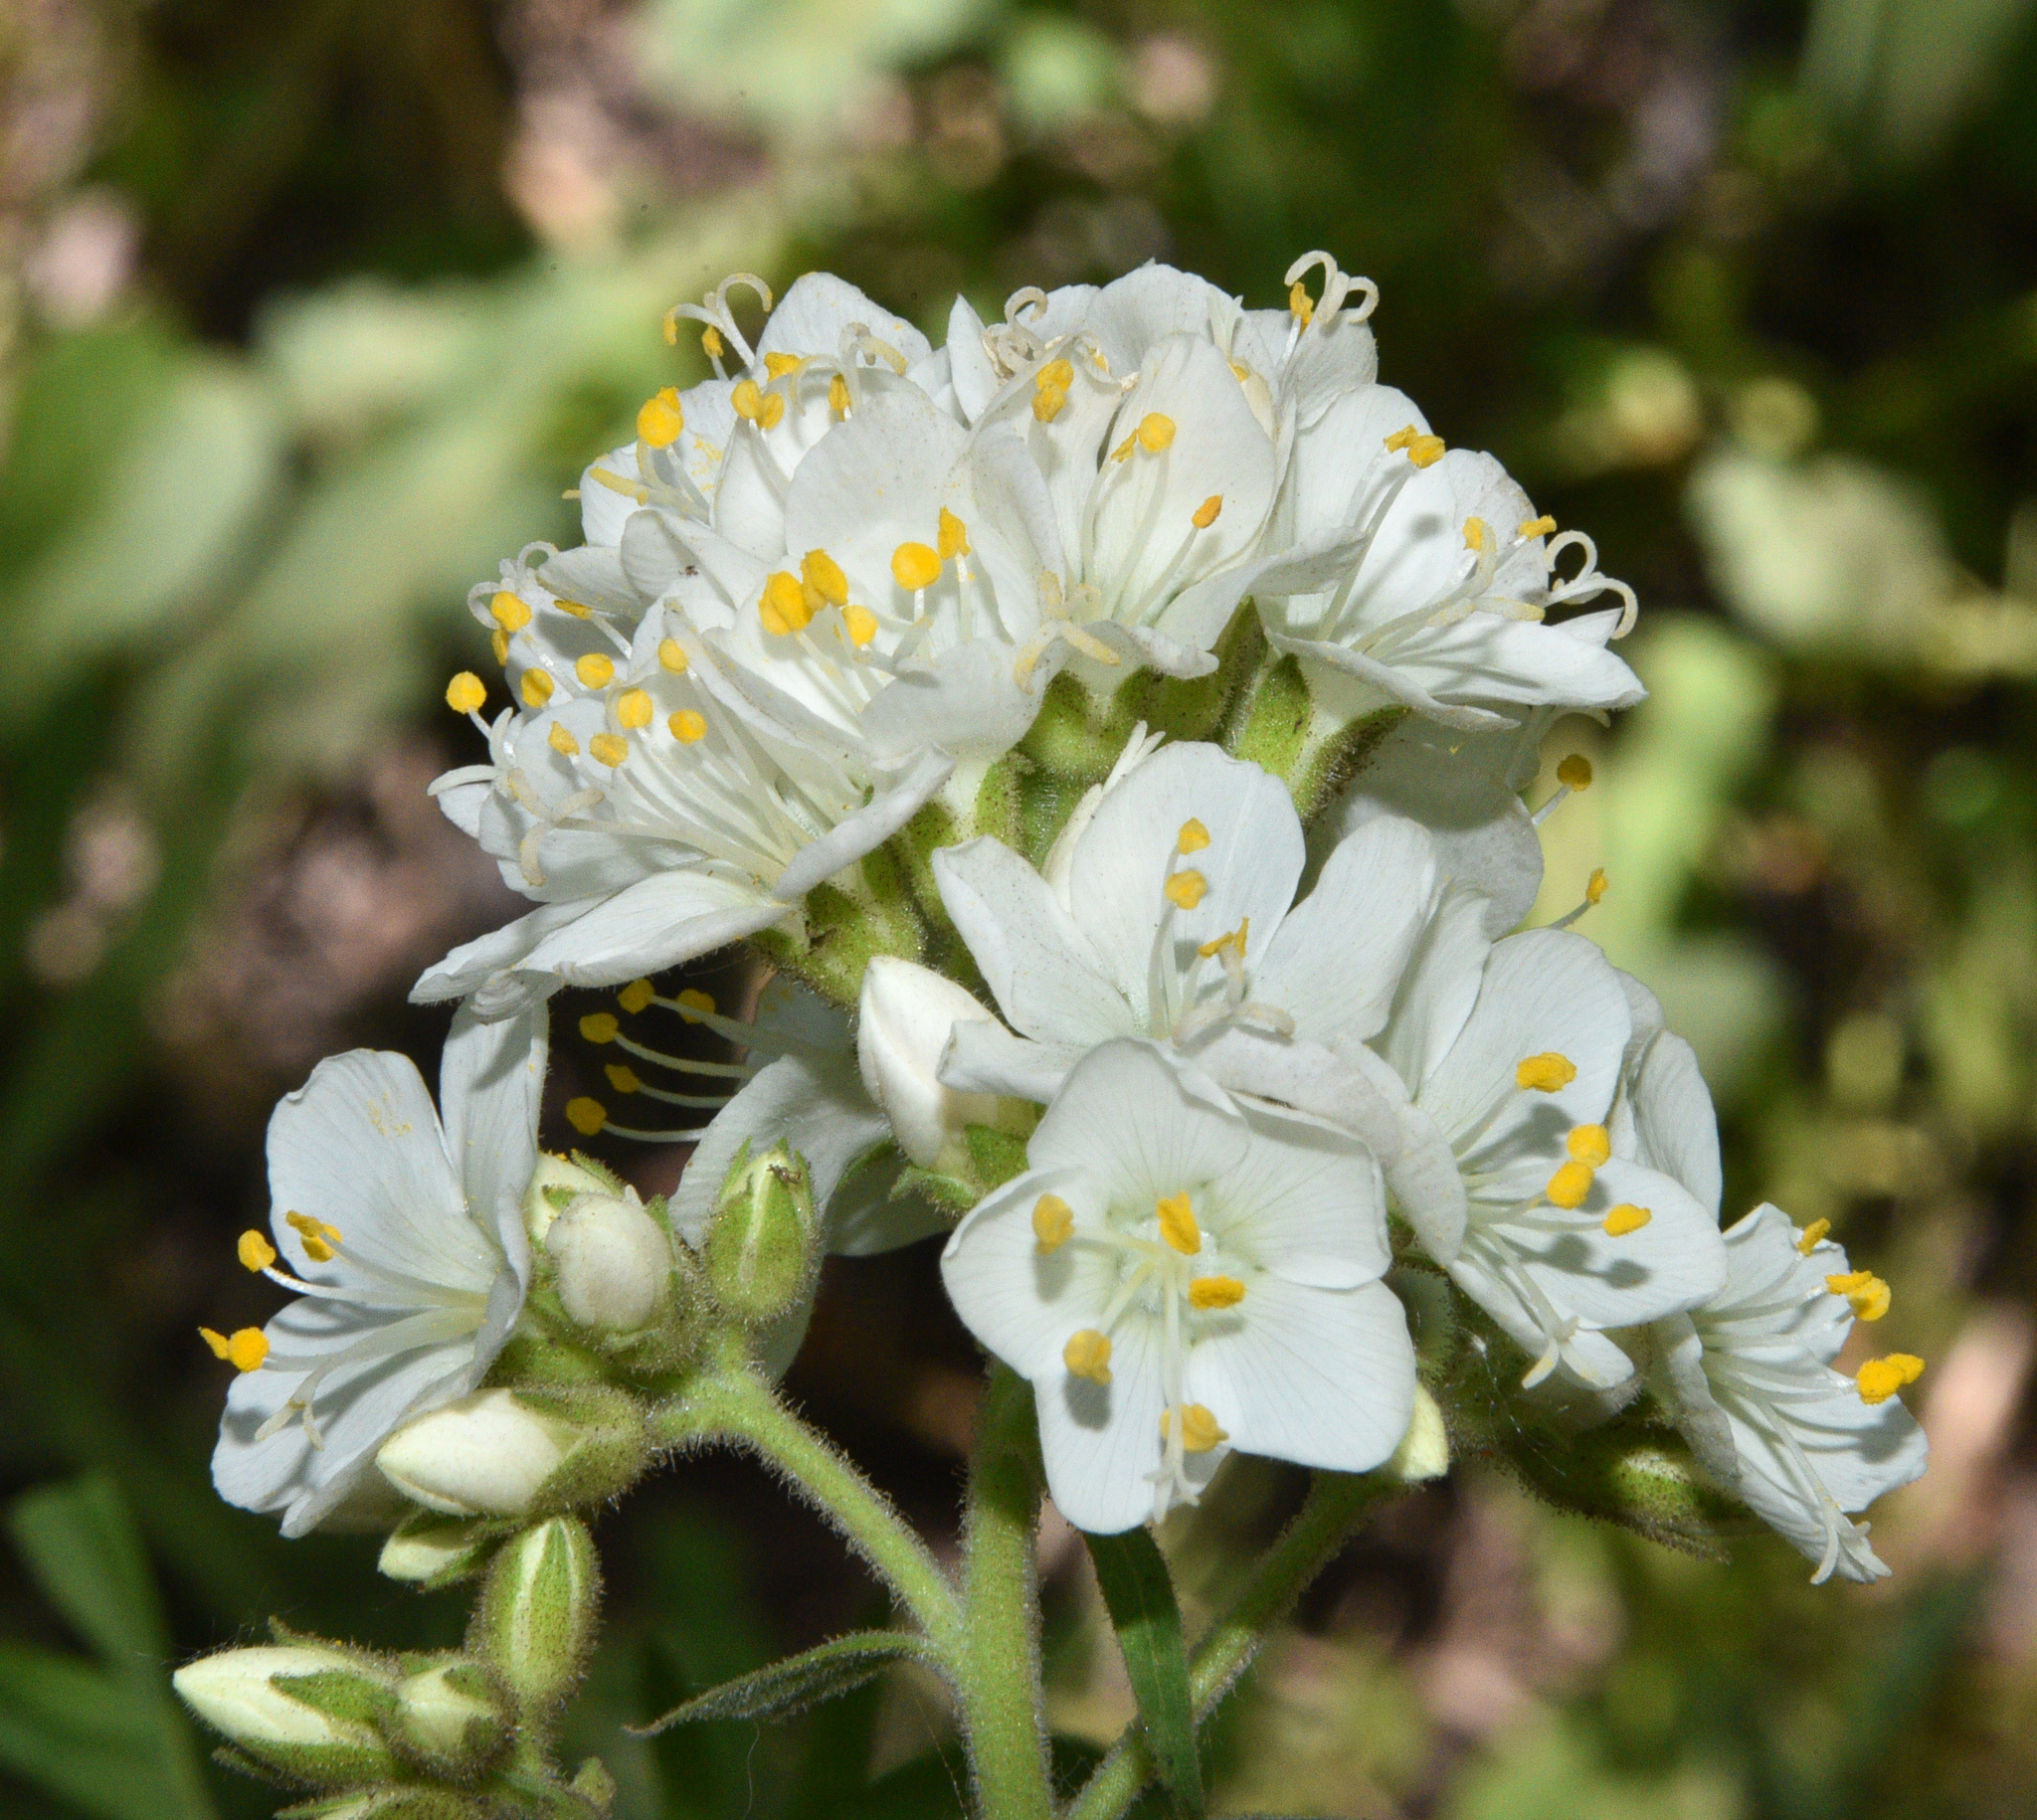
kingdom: Plantae
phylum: Tracheophyta
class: Magnoliopsida
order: Ericales
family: Polemoniaceae
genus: Polemonium
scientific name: Polemonium foliosissimum
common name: Leafy jacob's-ladder
